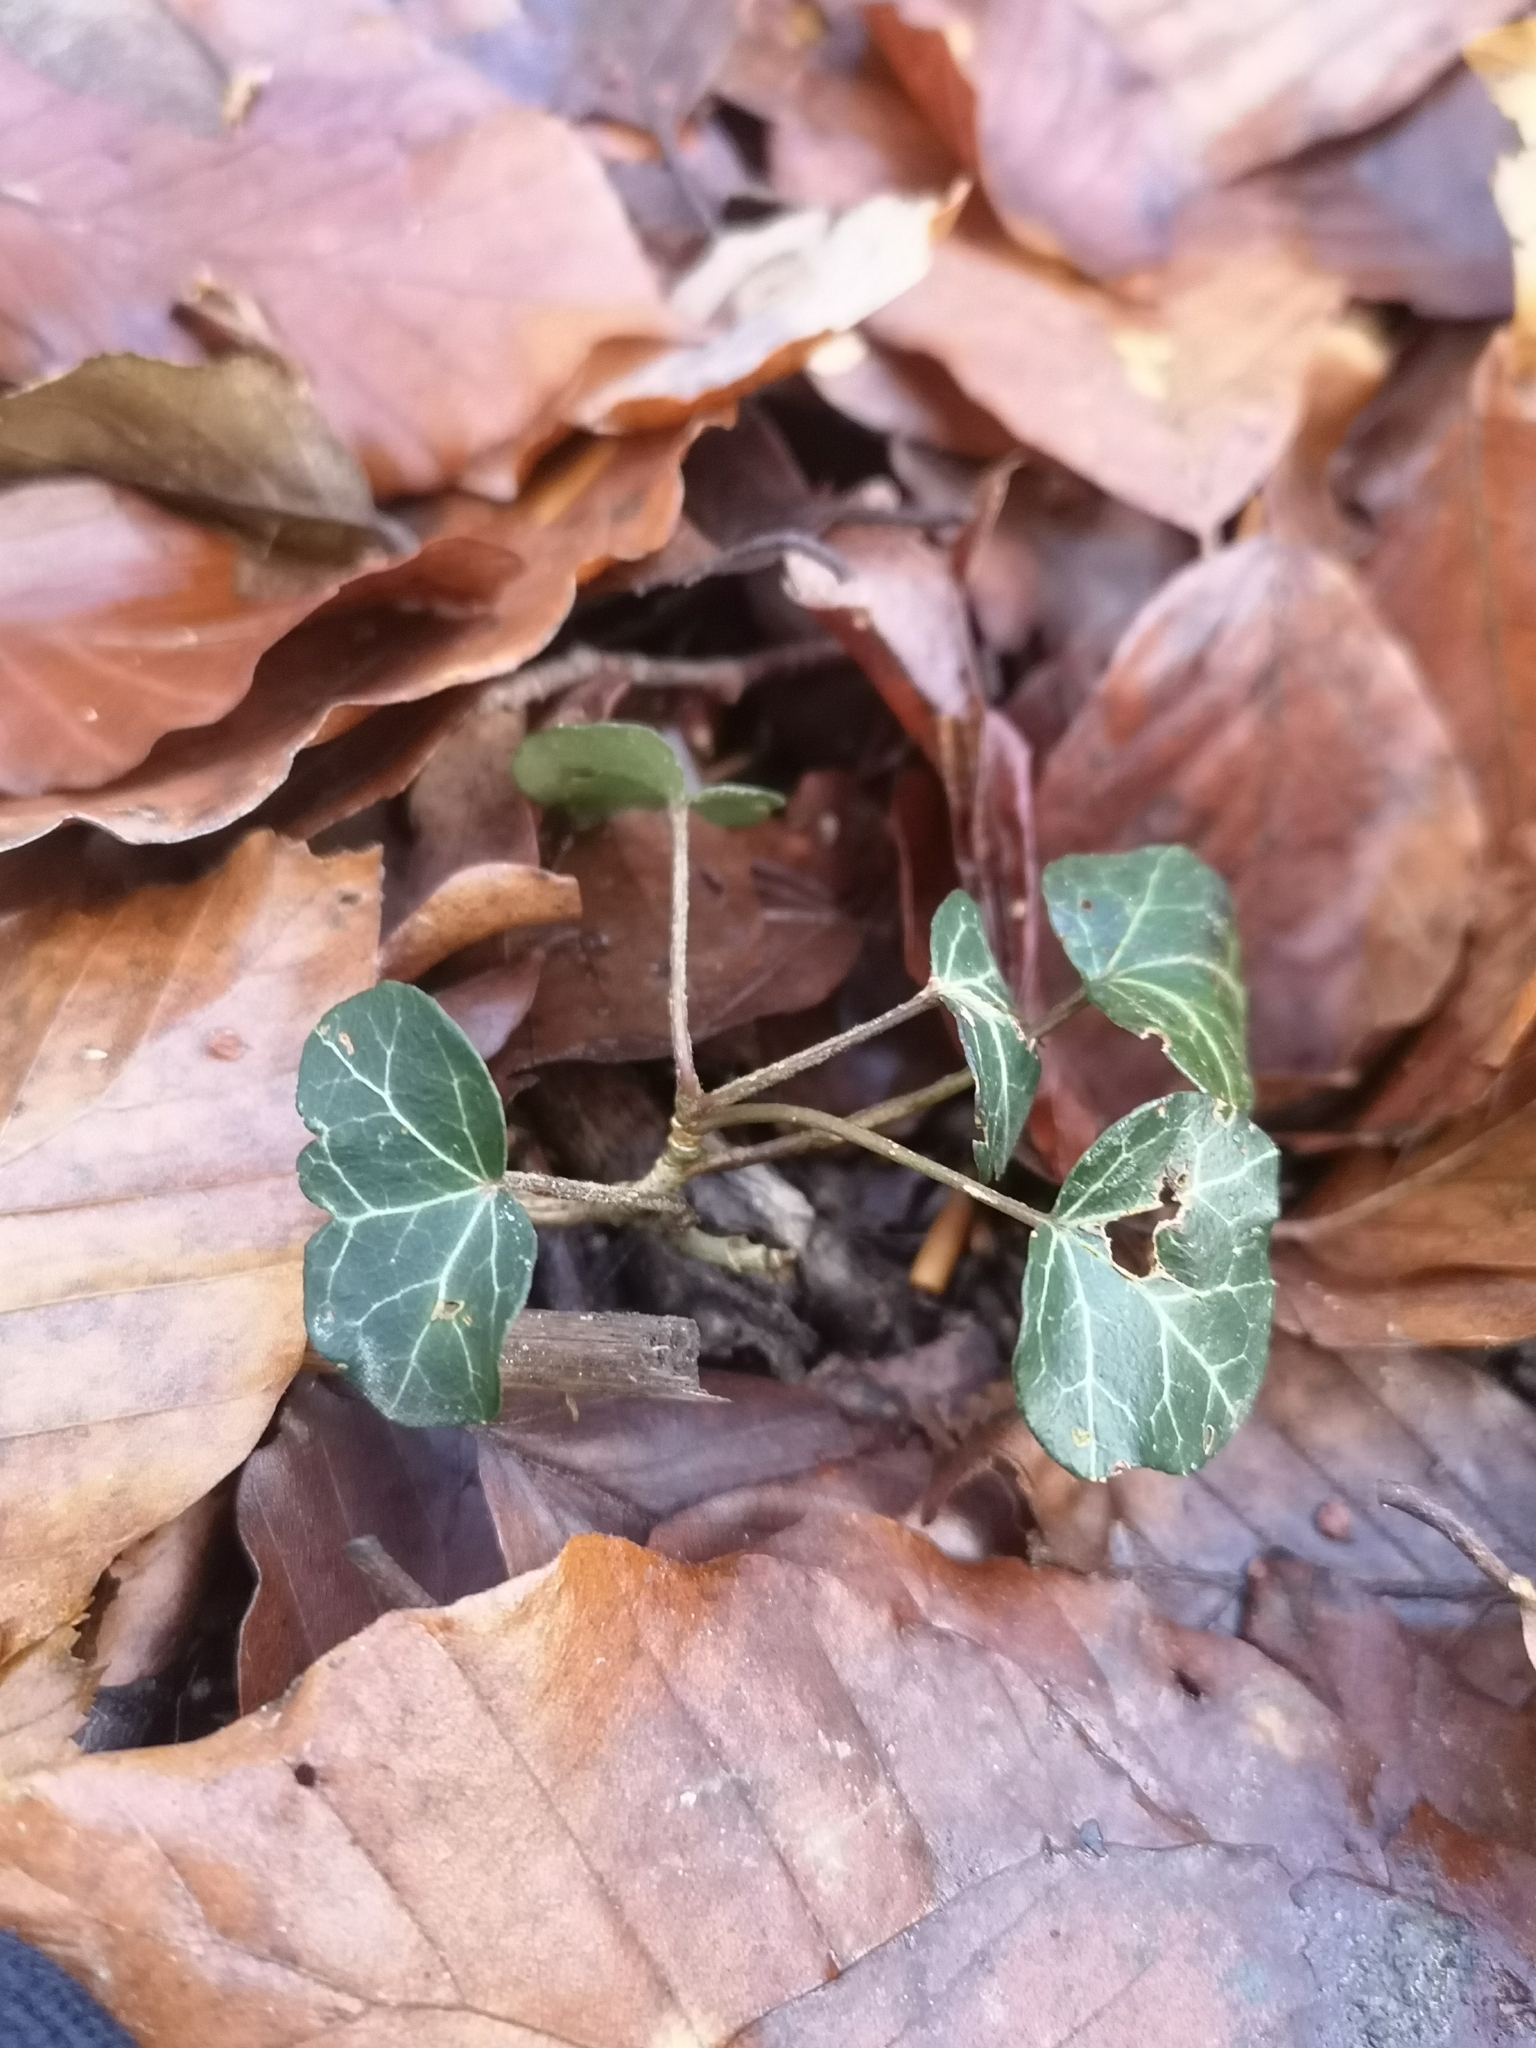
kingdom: Plantae
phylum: Tracheophyta
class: Magnoliopsida
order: Apiales
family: Araliaceae
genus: Hedera
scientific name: Hedera helix
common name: Ivy
